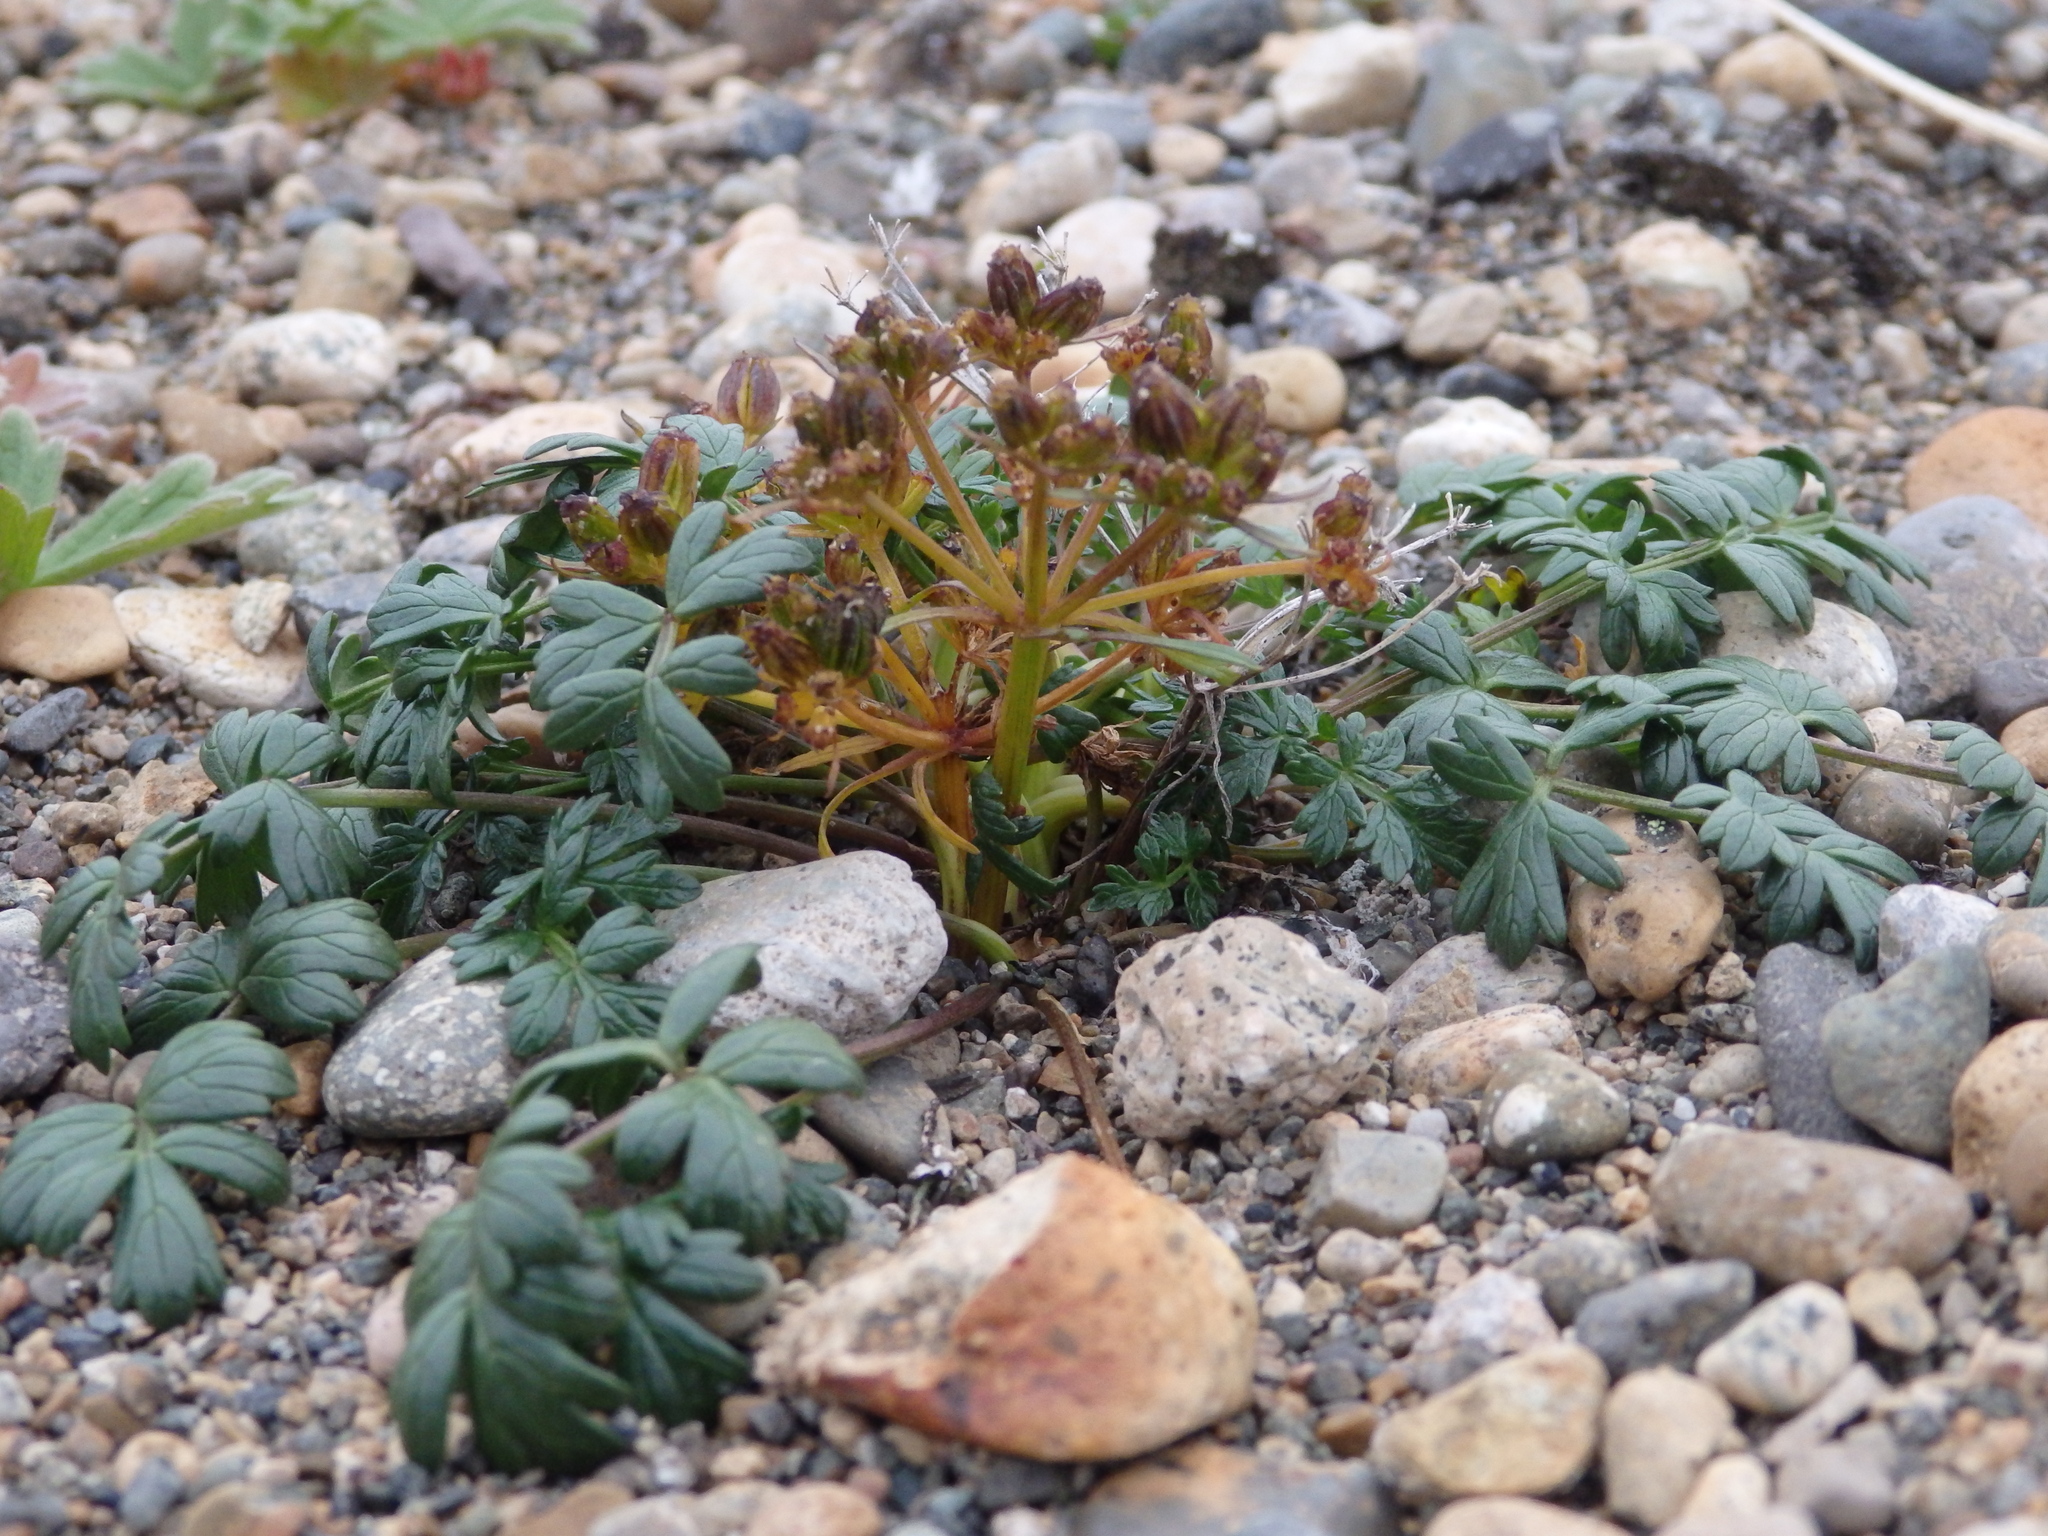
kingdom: Plantae
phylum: Tracheophyta
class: Magnoliopsida
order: Apiales
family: Apiaceae
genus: Orumbella
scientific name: Orumbella macounii
